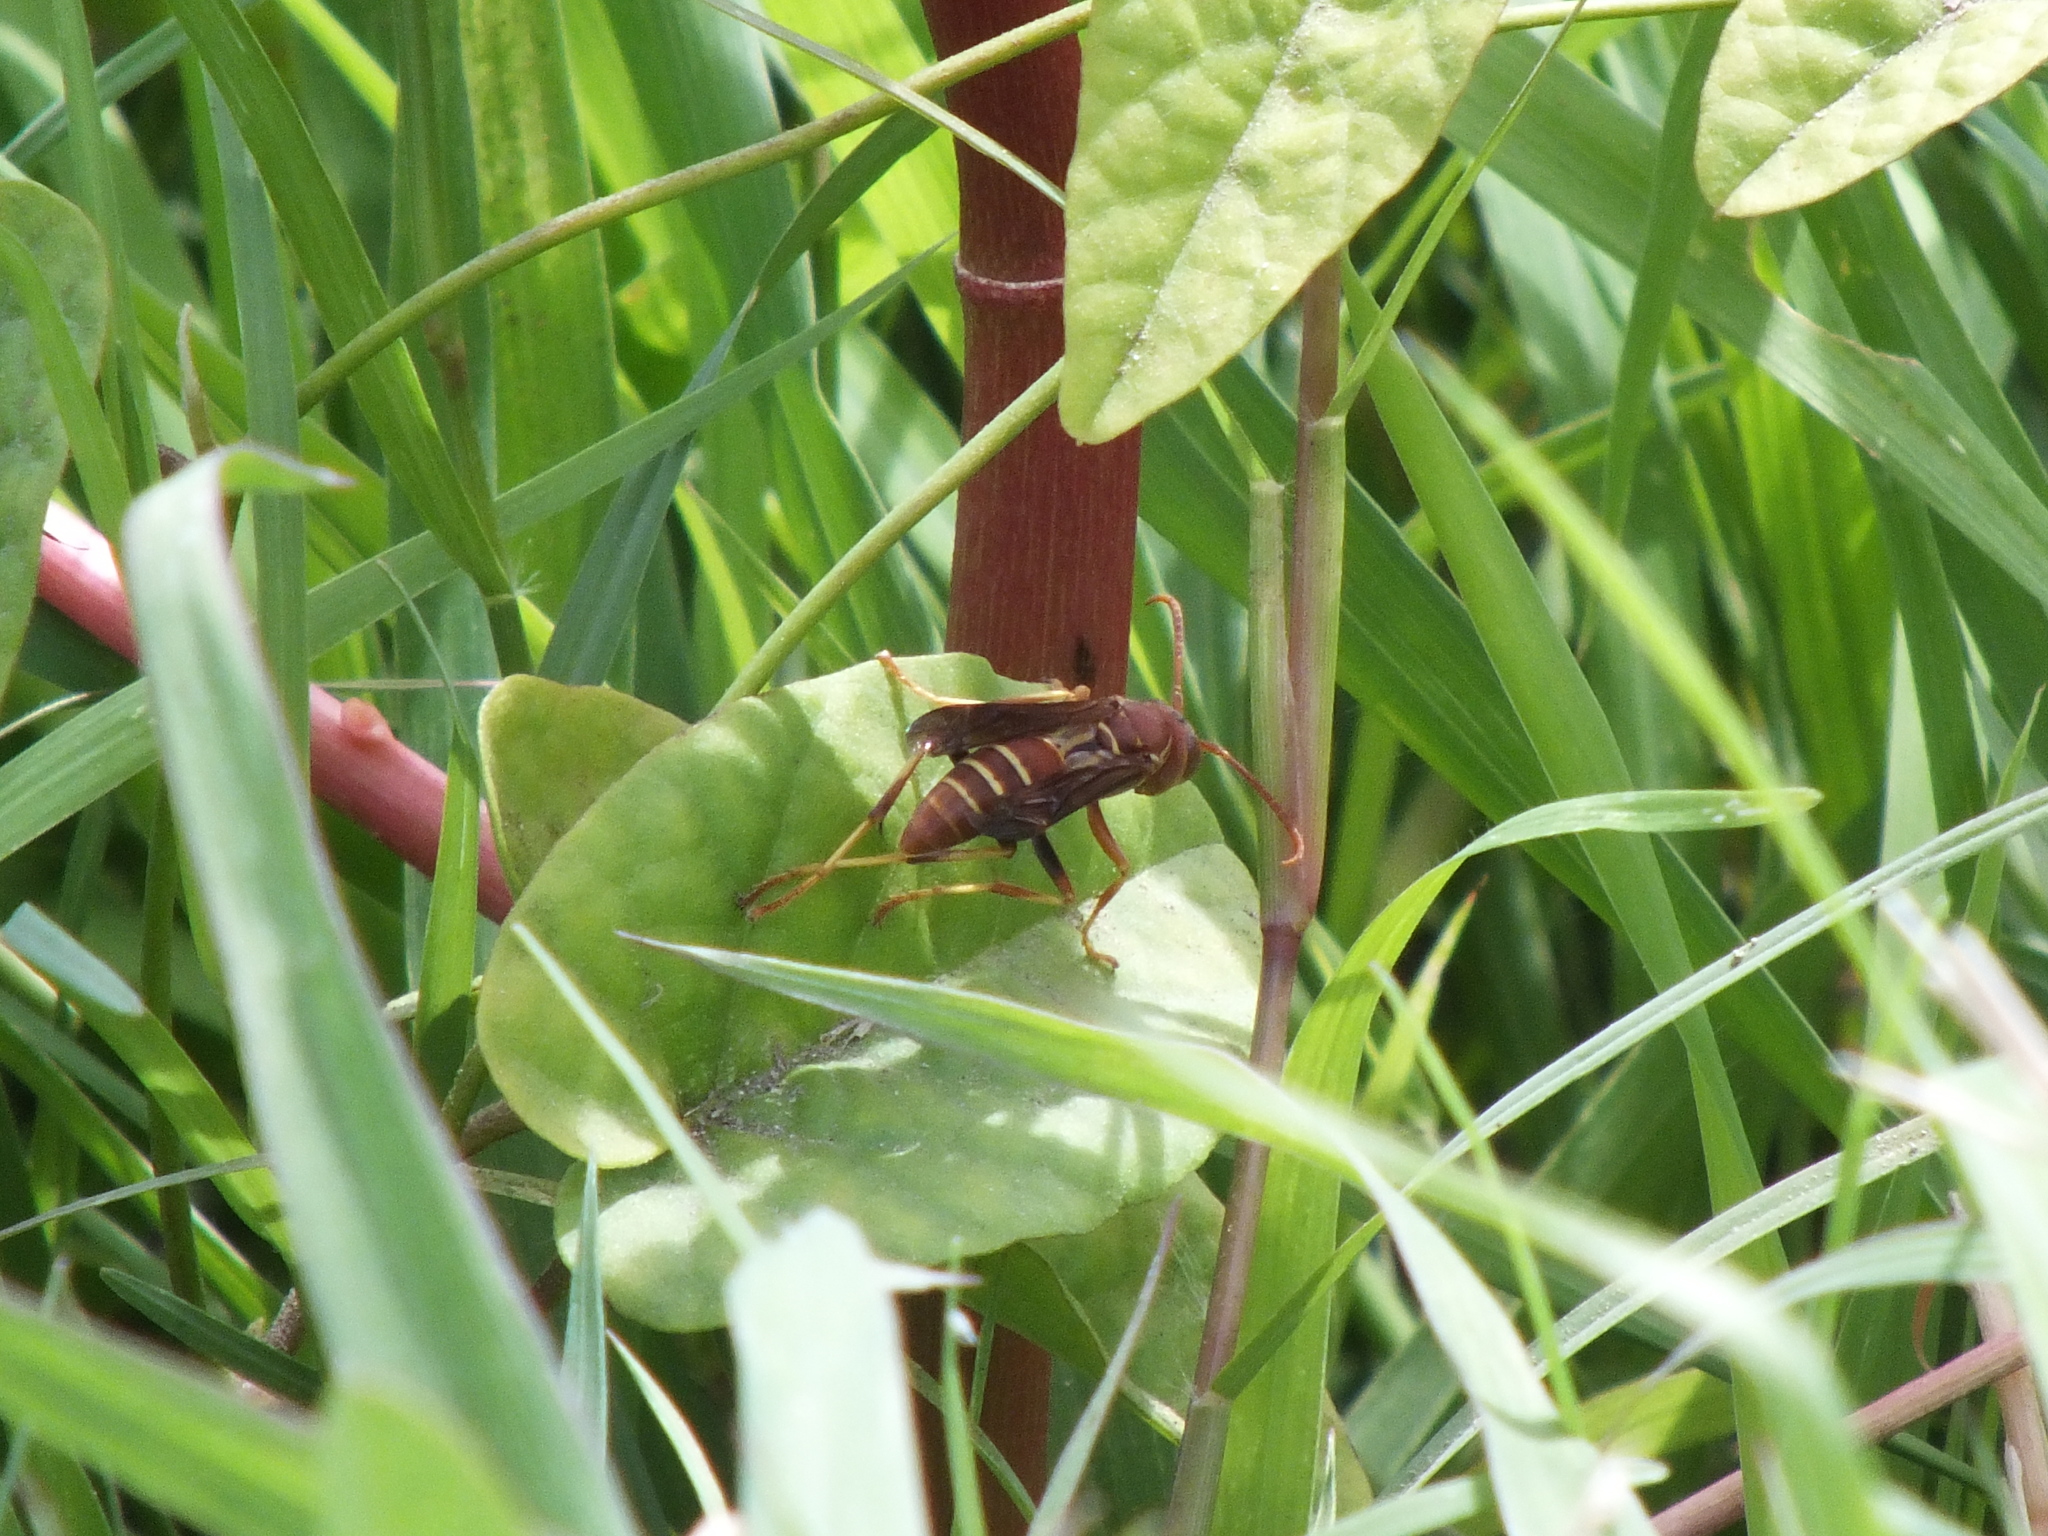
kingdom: Animalia
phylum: Arthropoda
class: Insecta
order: Hymenoptera
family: Eumenidae
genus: Polistes
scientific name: Polistes dorsalis
